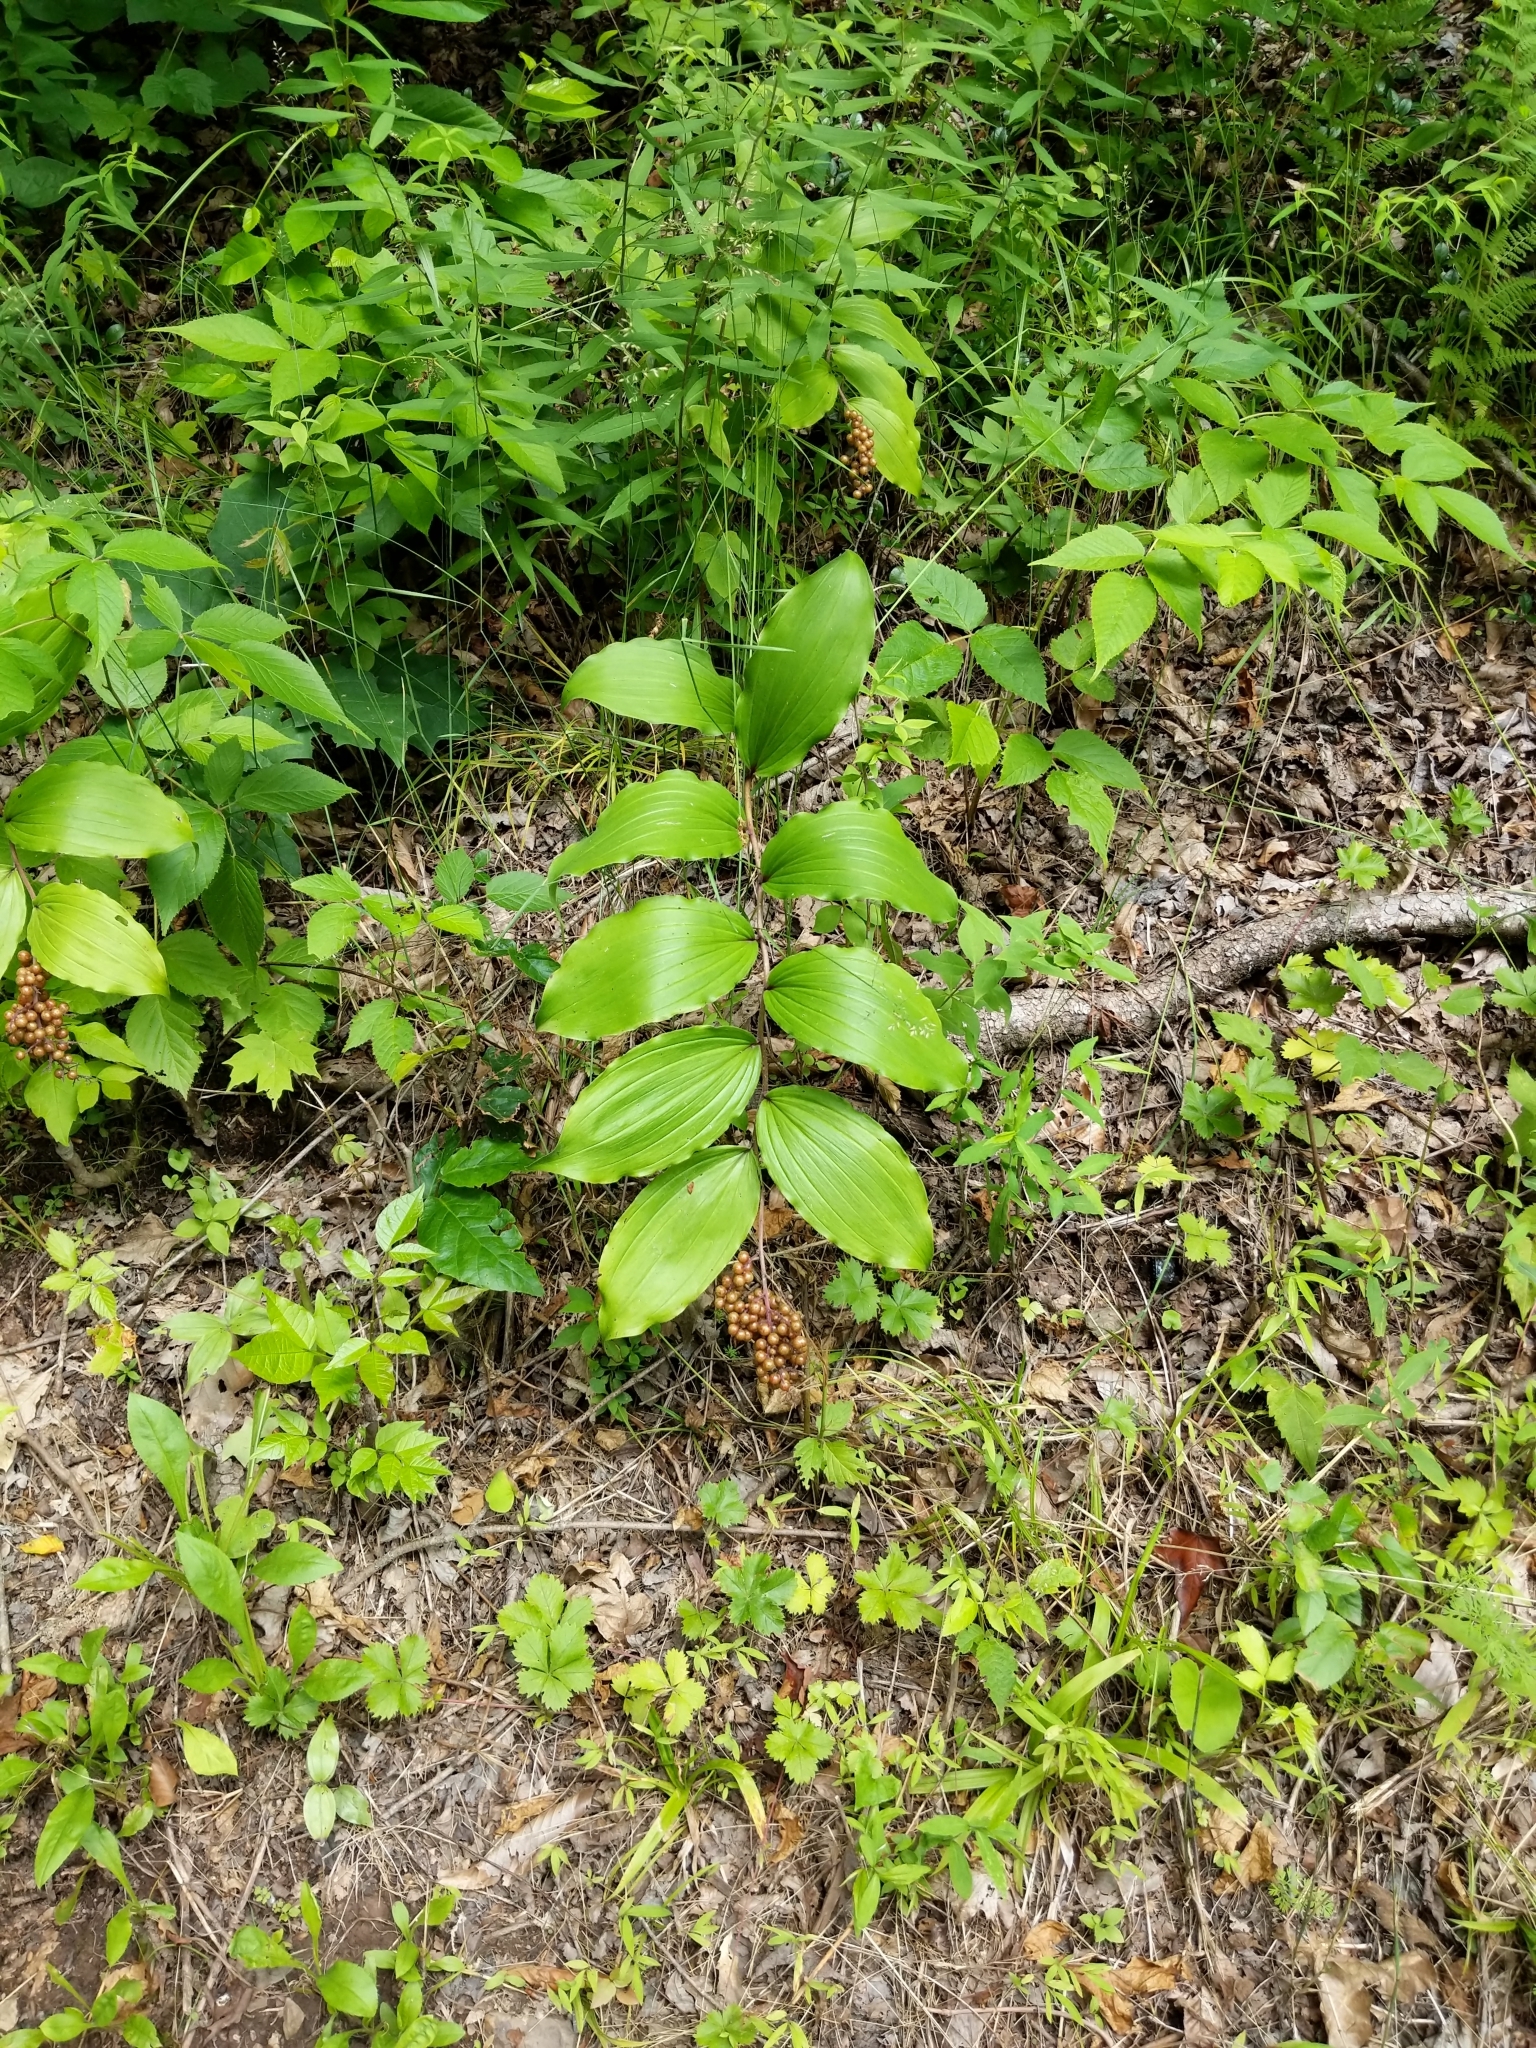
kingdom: Plantae
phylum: Tracheophyta
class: Liliopsida
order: Asparagales
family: Asparagaceae
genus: Maianthemum
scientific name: Maianthemum racemosum
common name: False spikenard
